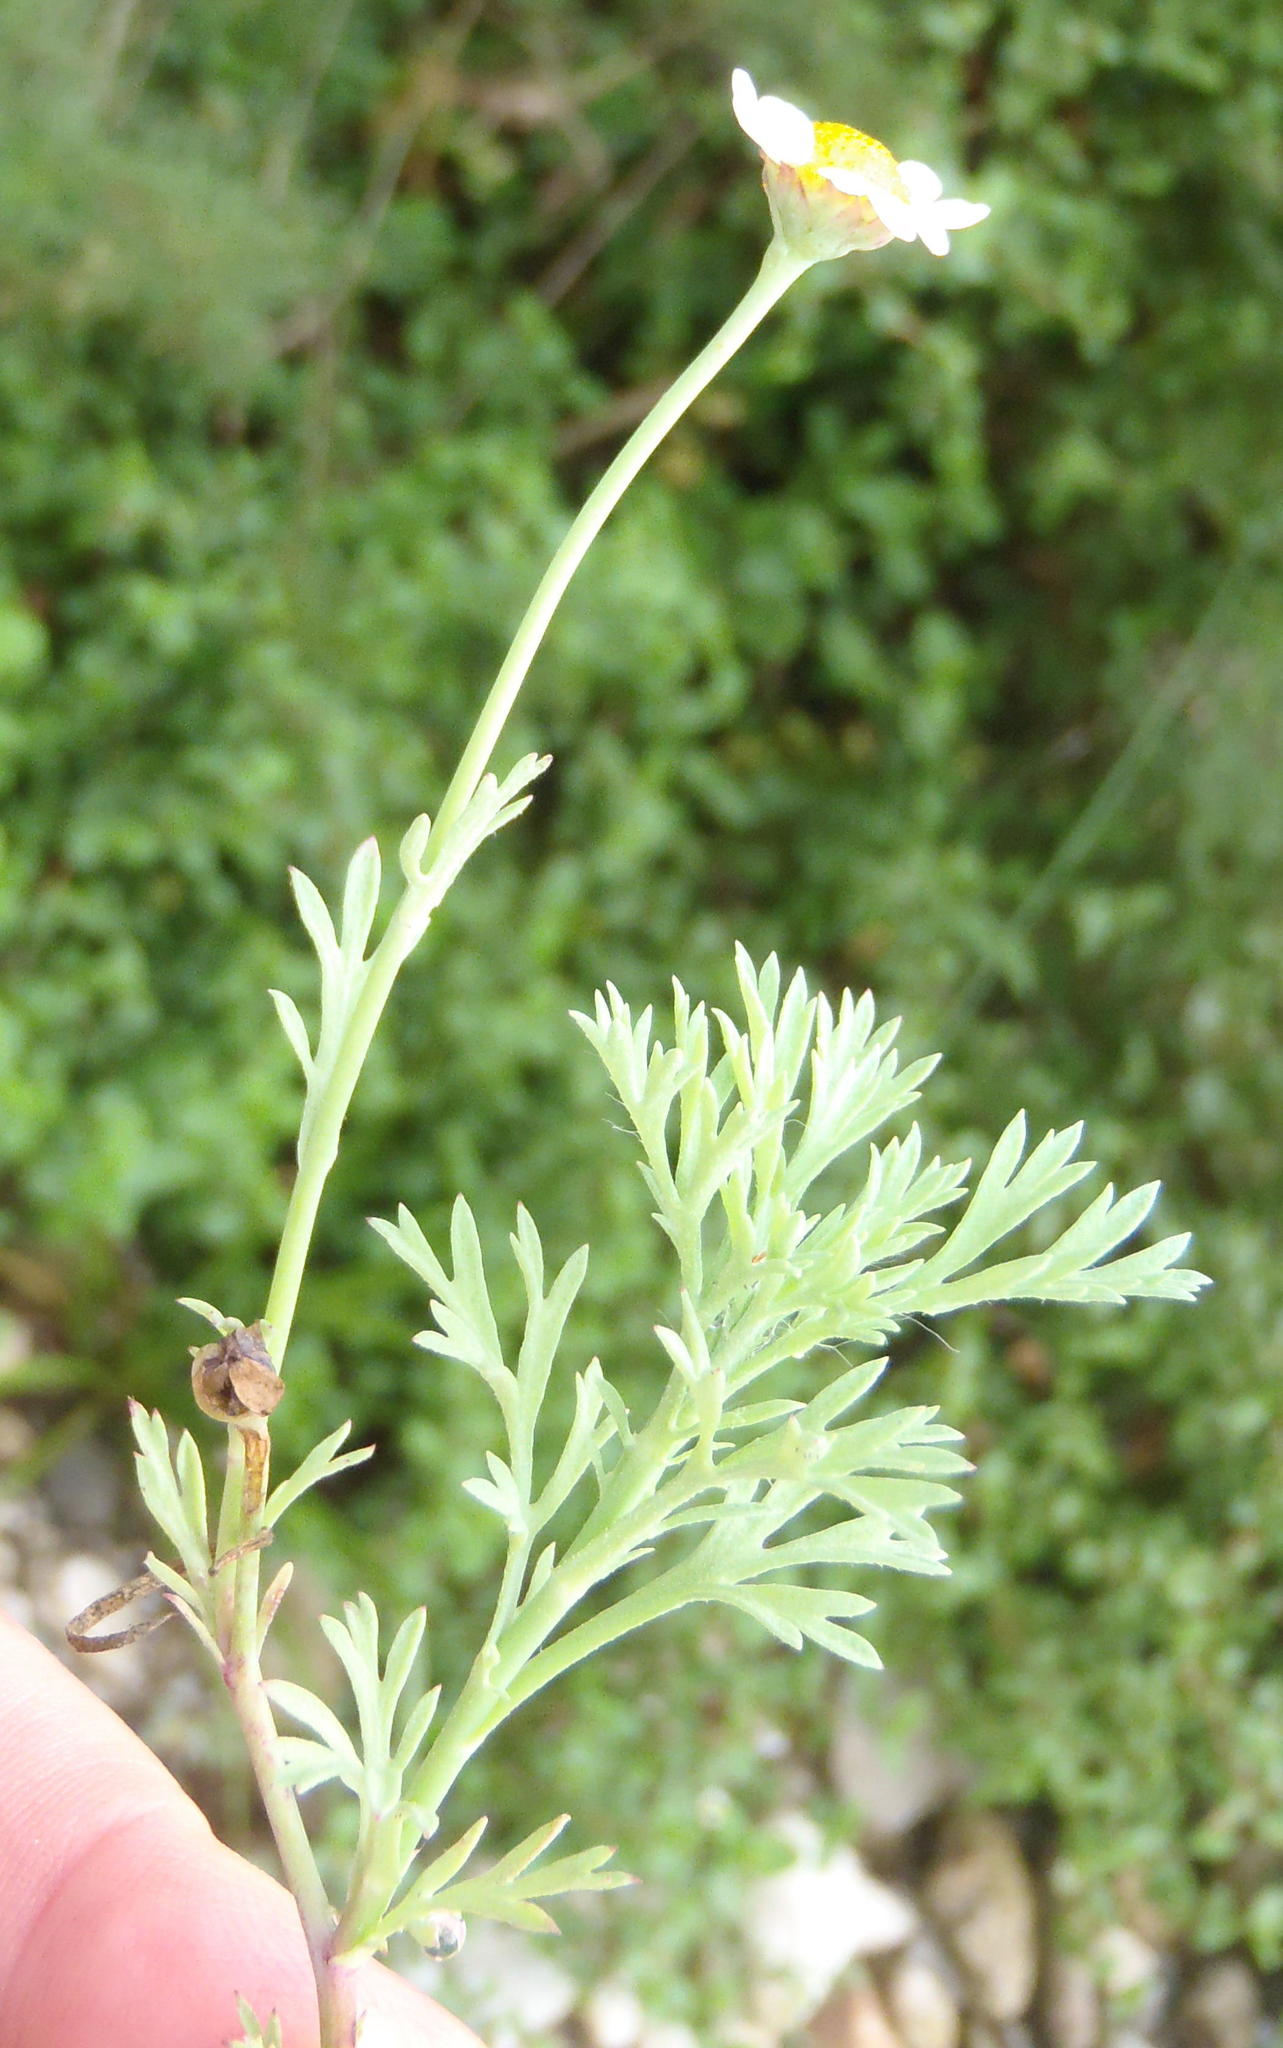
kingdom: Plantae
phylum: Tracheophyta
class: Magnoliopsida
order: Asterales
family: Asteraceae
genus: Cotula
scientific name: Cotula nigellifolia
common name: Staggerweed
